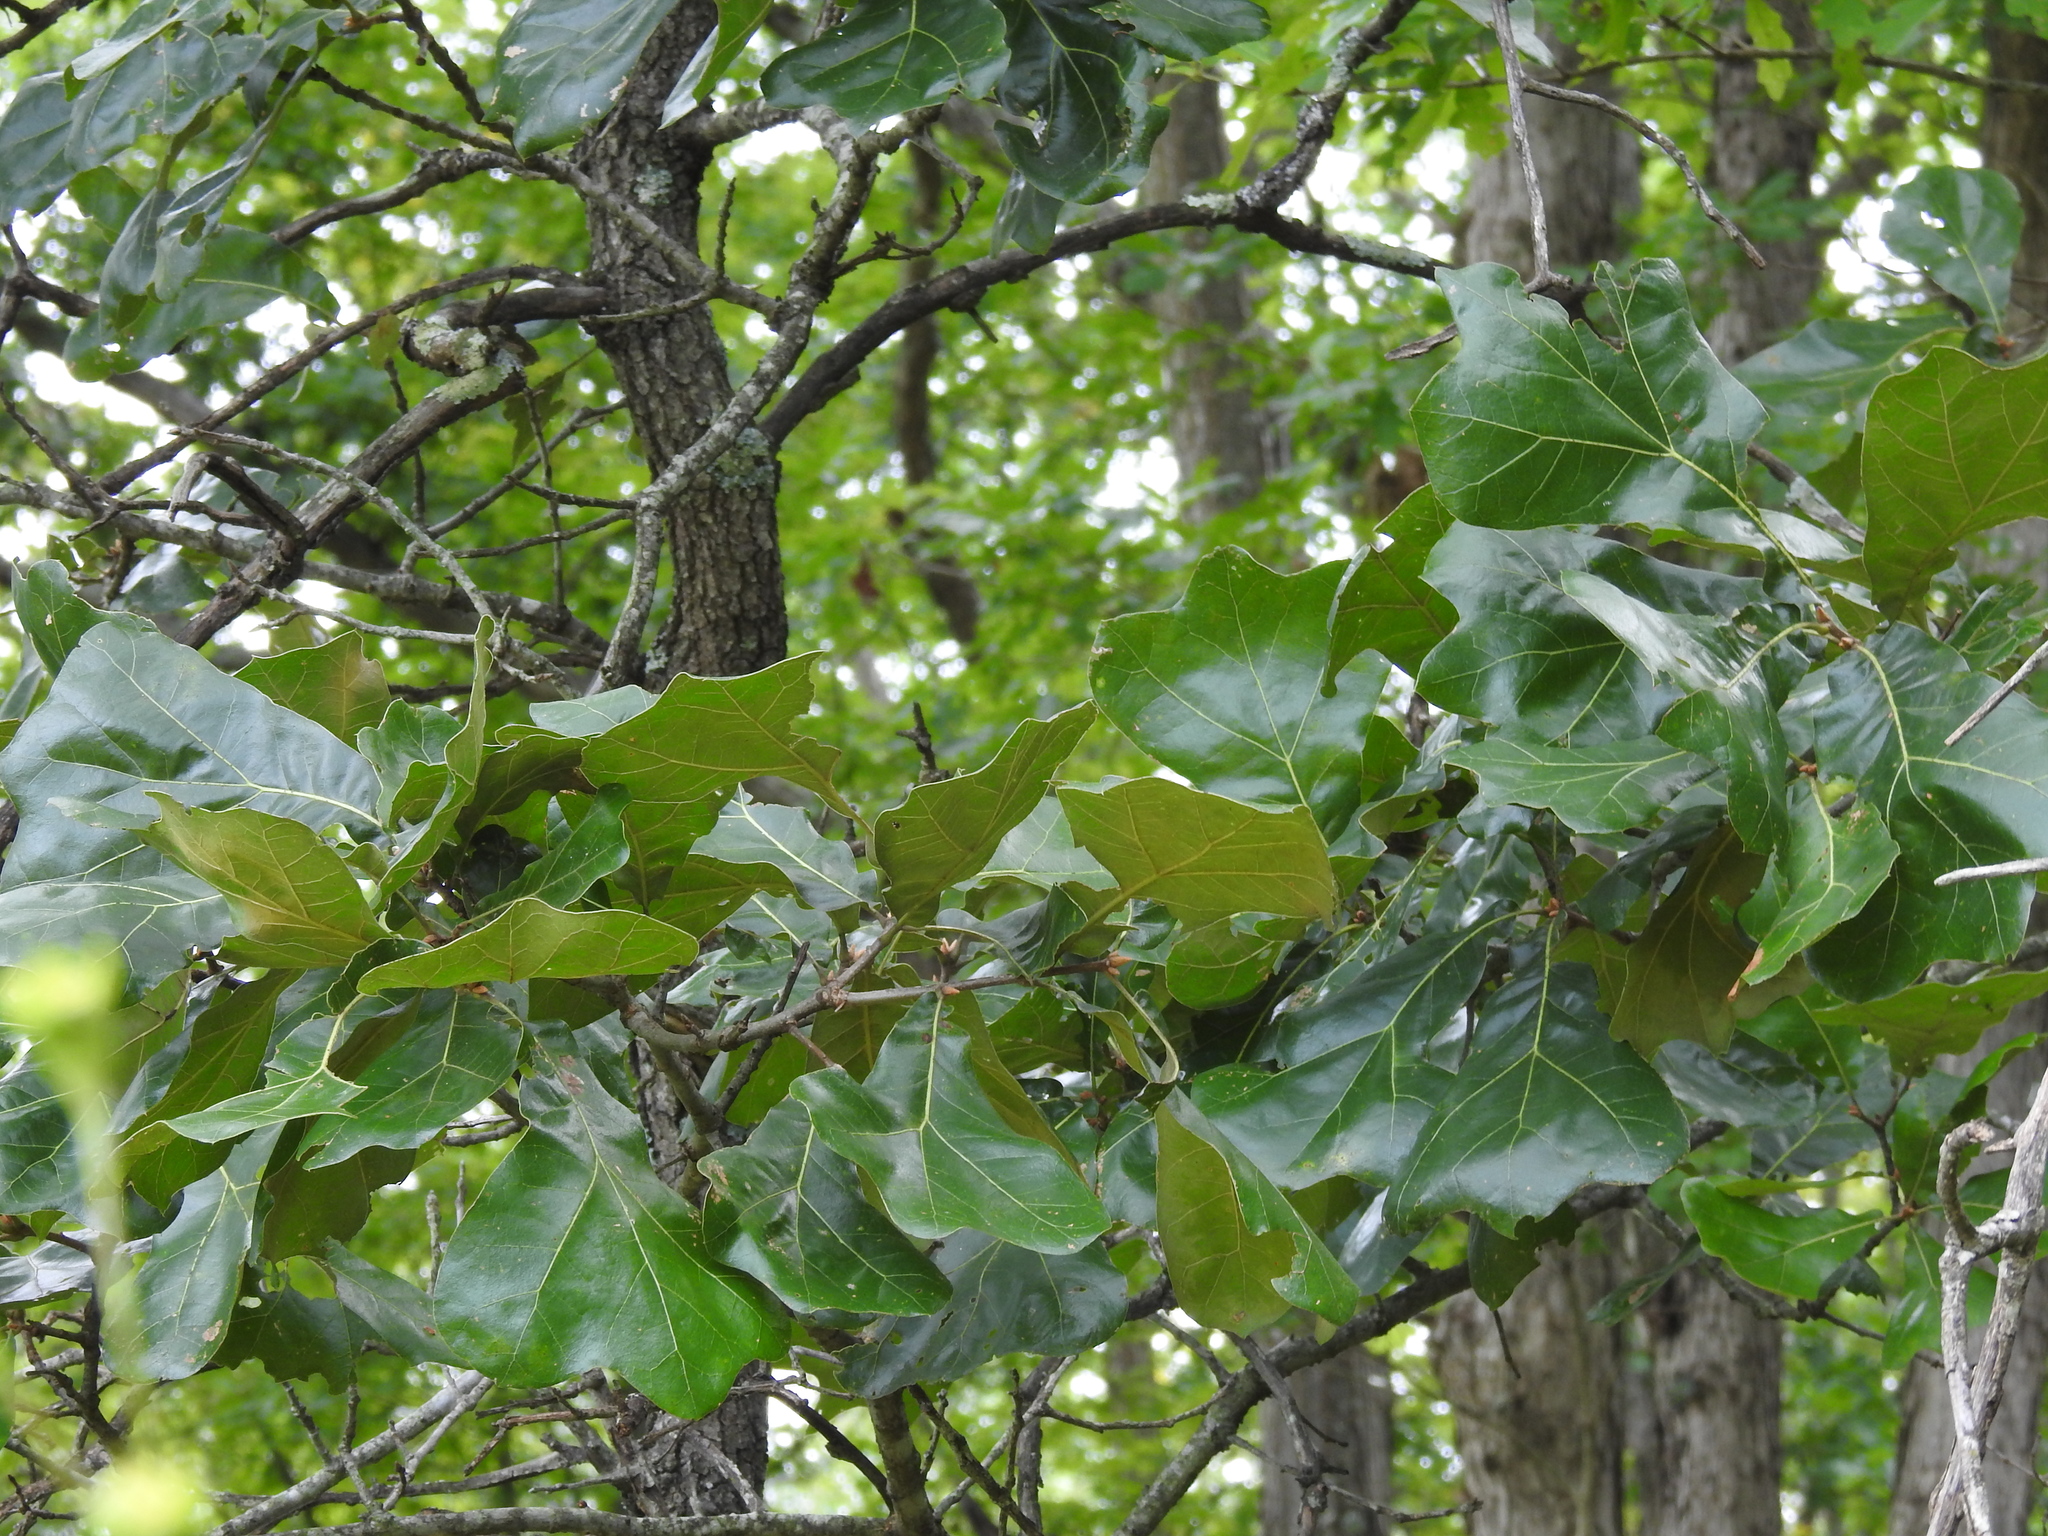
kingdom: Plantae
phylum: Tracheophyta
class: Magnoliopsida
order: Fagales
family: Fagaceae
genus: Quercus
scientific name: Quercus marilandica
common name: Blackjack oak
